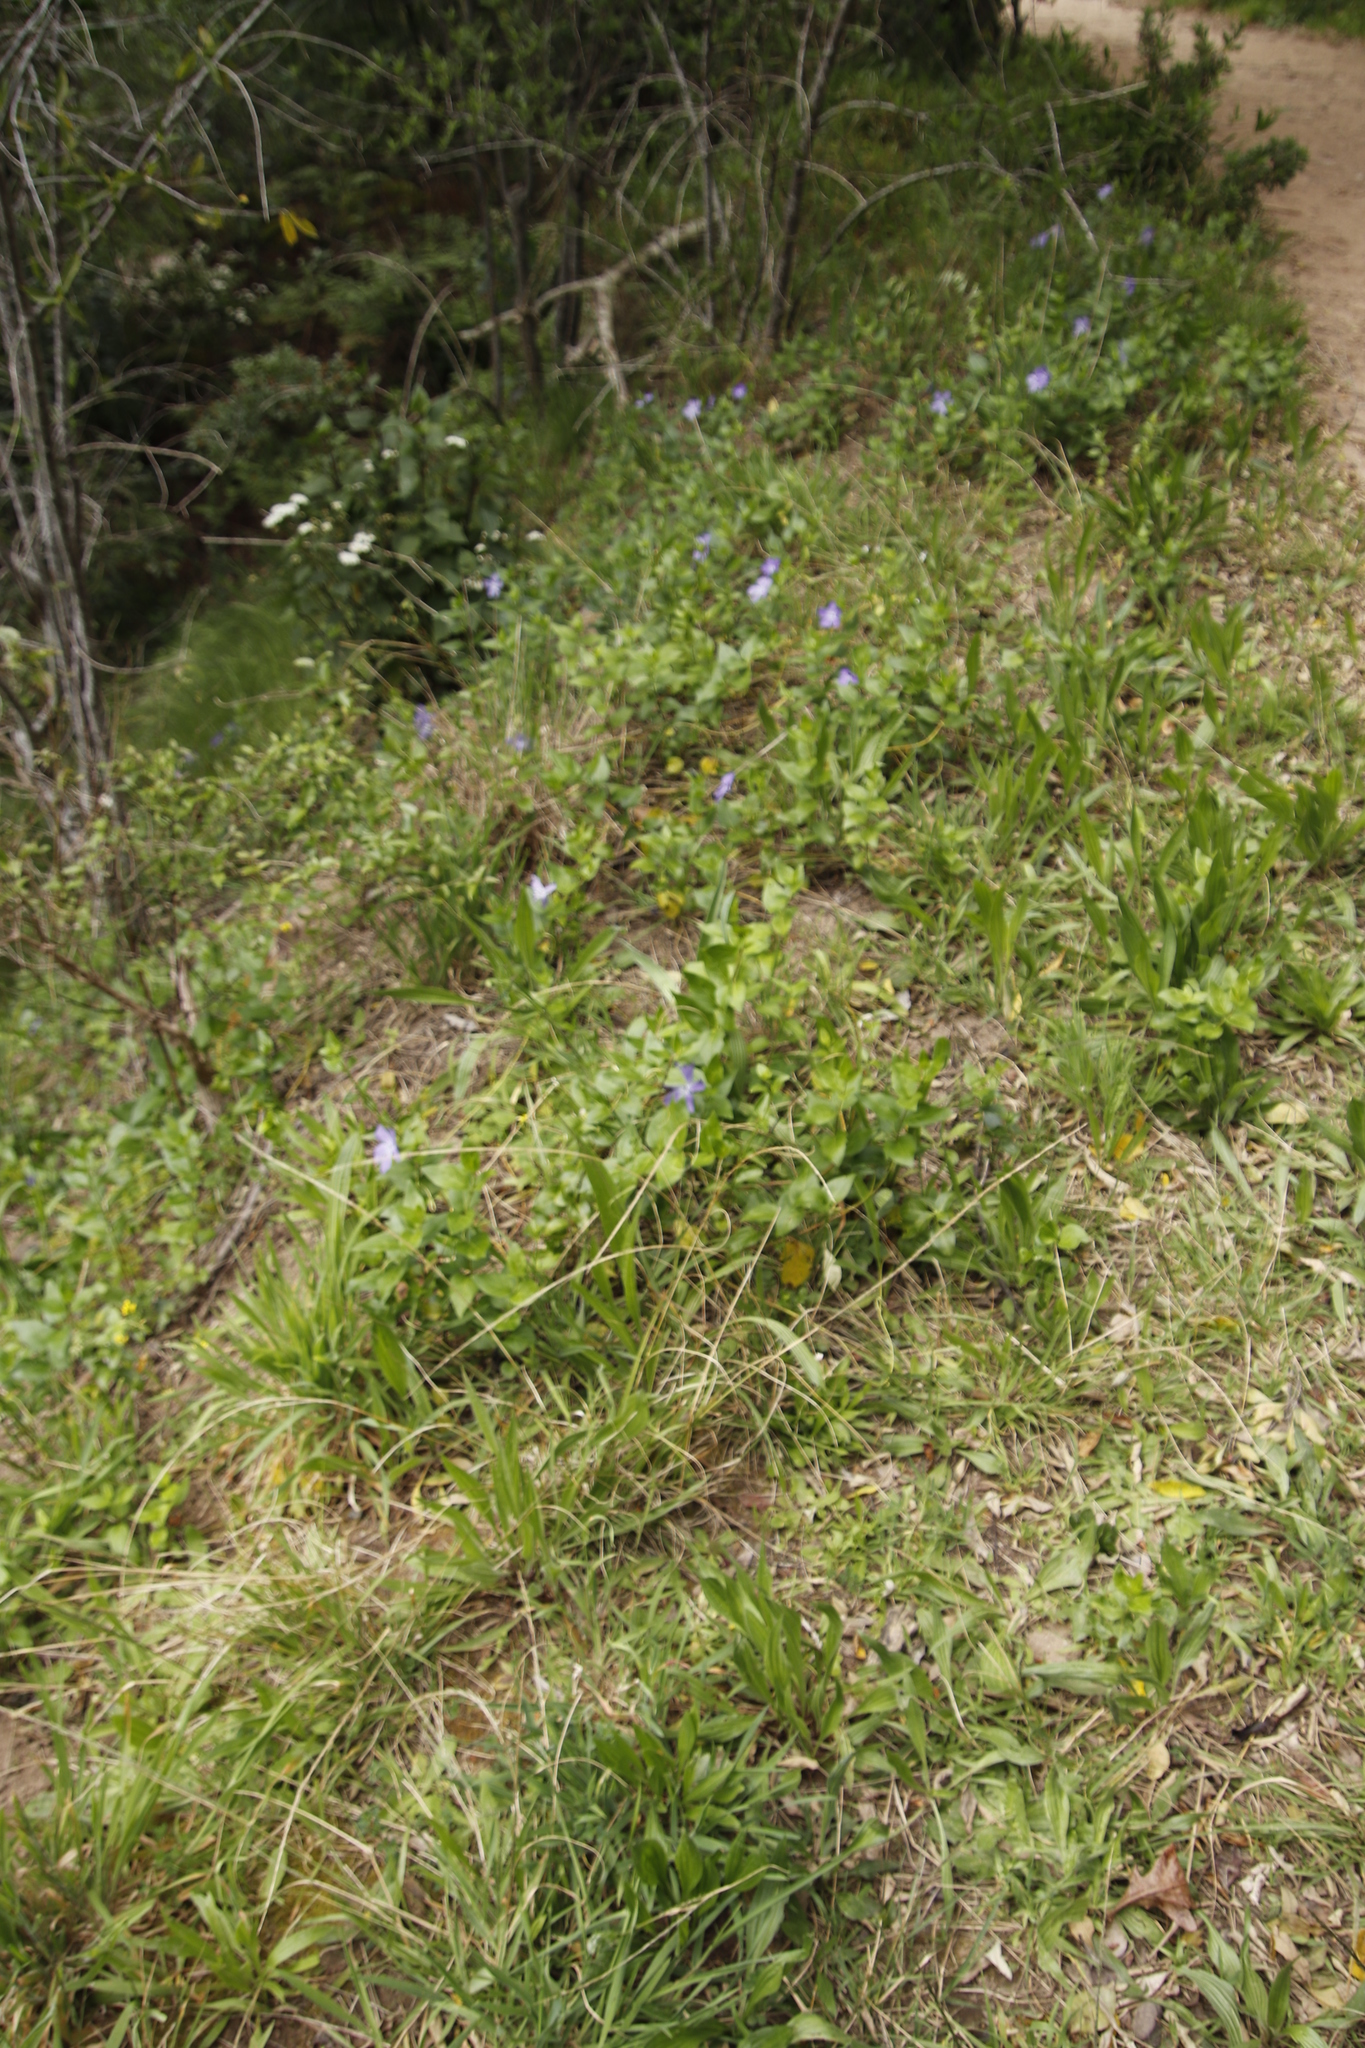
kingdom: Plantae
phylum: Tracheophyta
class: Magnoliopsida
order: Gentianales
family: Apocynaceae
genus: Vinca
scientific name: Vinca major
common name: Greater periwinkle
